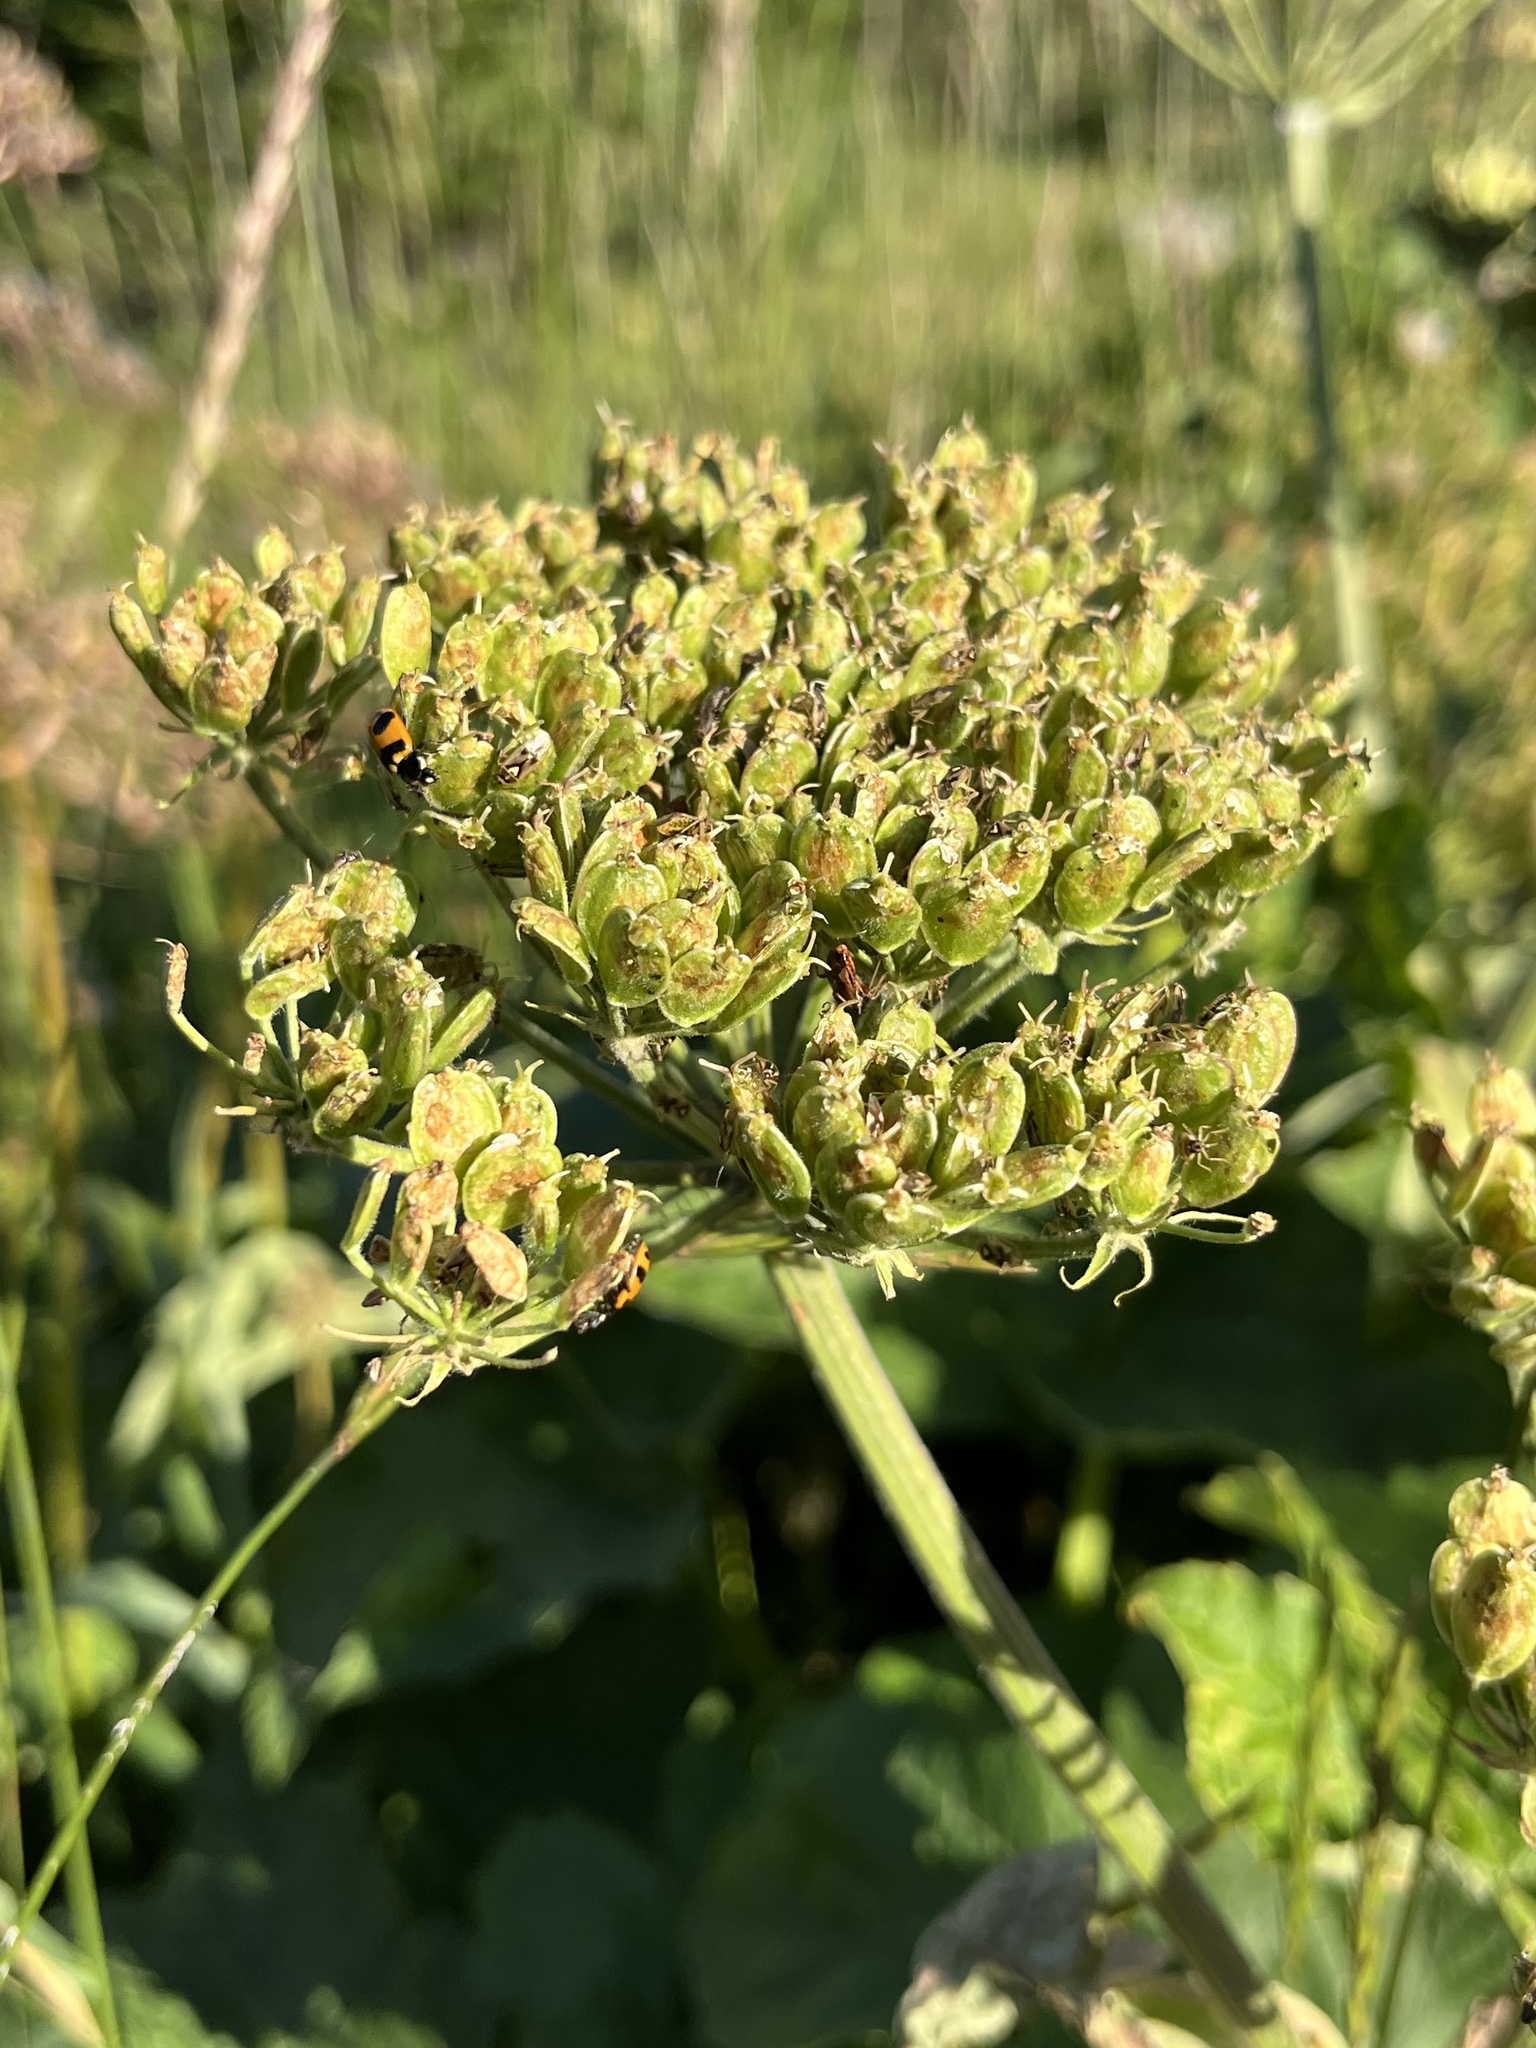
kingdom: Plantae
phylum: Tracheophyta
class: Magnoliopsida
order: Apiales
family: Apiaceae
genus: Heracleum
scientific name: Heracleum maximum
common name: American cow parsnip
